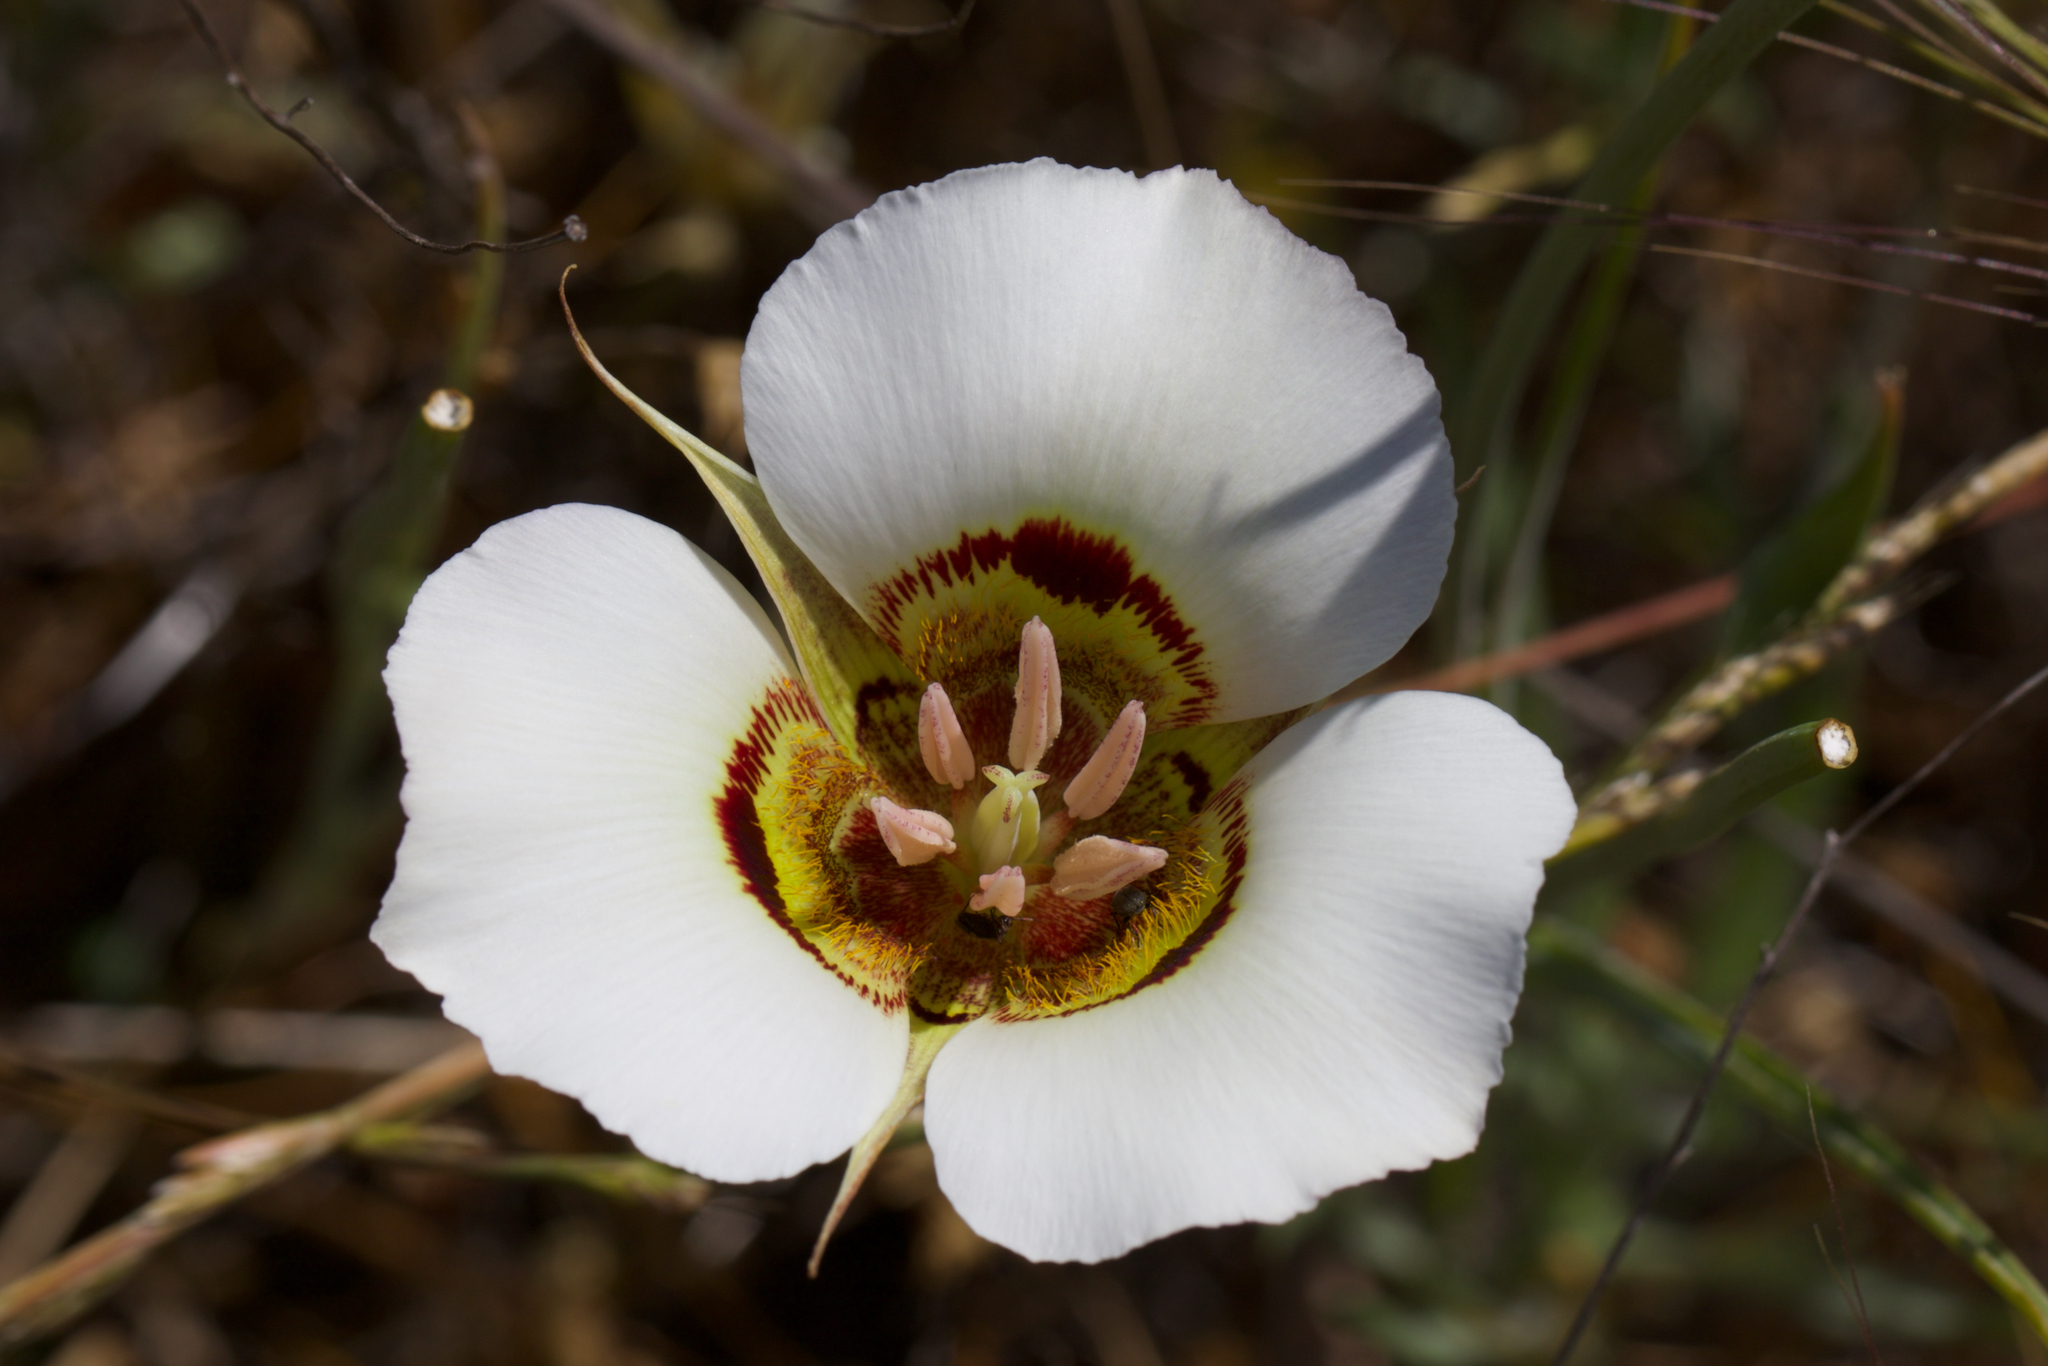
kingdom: Plantae
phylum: Tracheophyta
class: Liliopsida
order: Liliales
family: Liliaceae
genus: Calochortus
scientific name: Calochortus vestae
